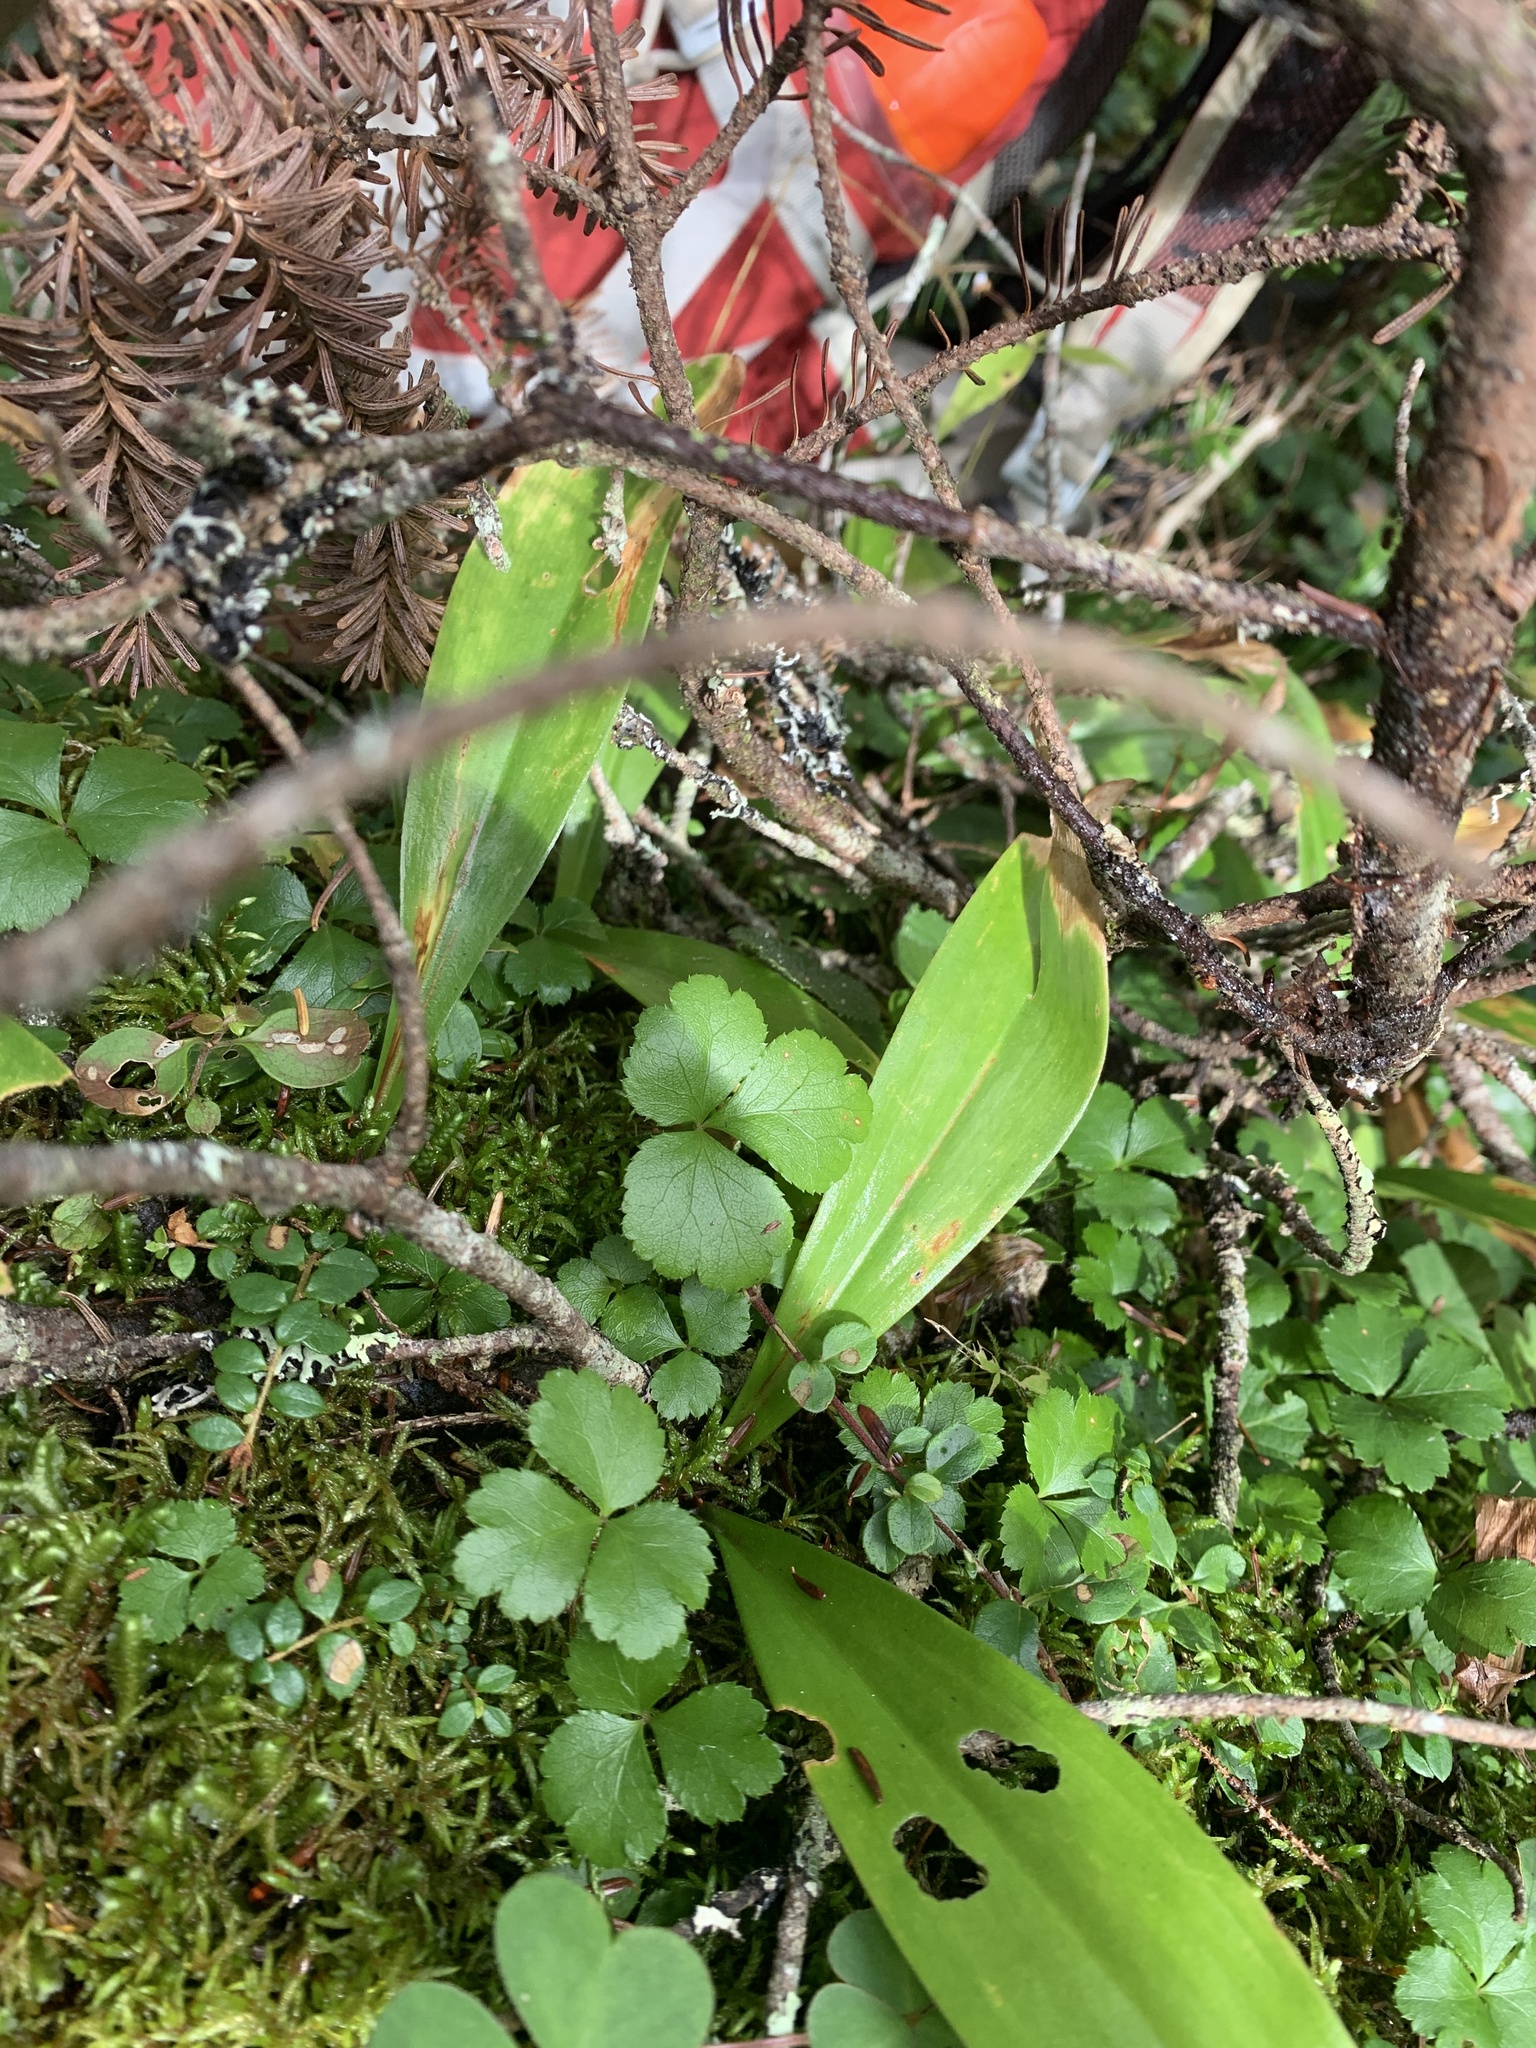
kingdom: Plantae
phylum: Tracheophyta
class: Liliopsida
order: Liliales
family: Liliaceae
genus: Clintonia
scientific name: Clintonia borealis
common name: Yellow clintonia
